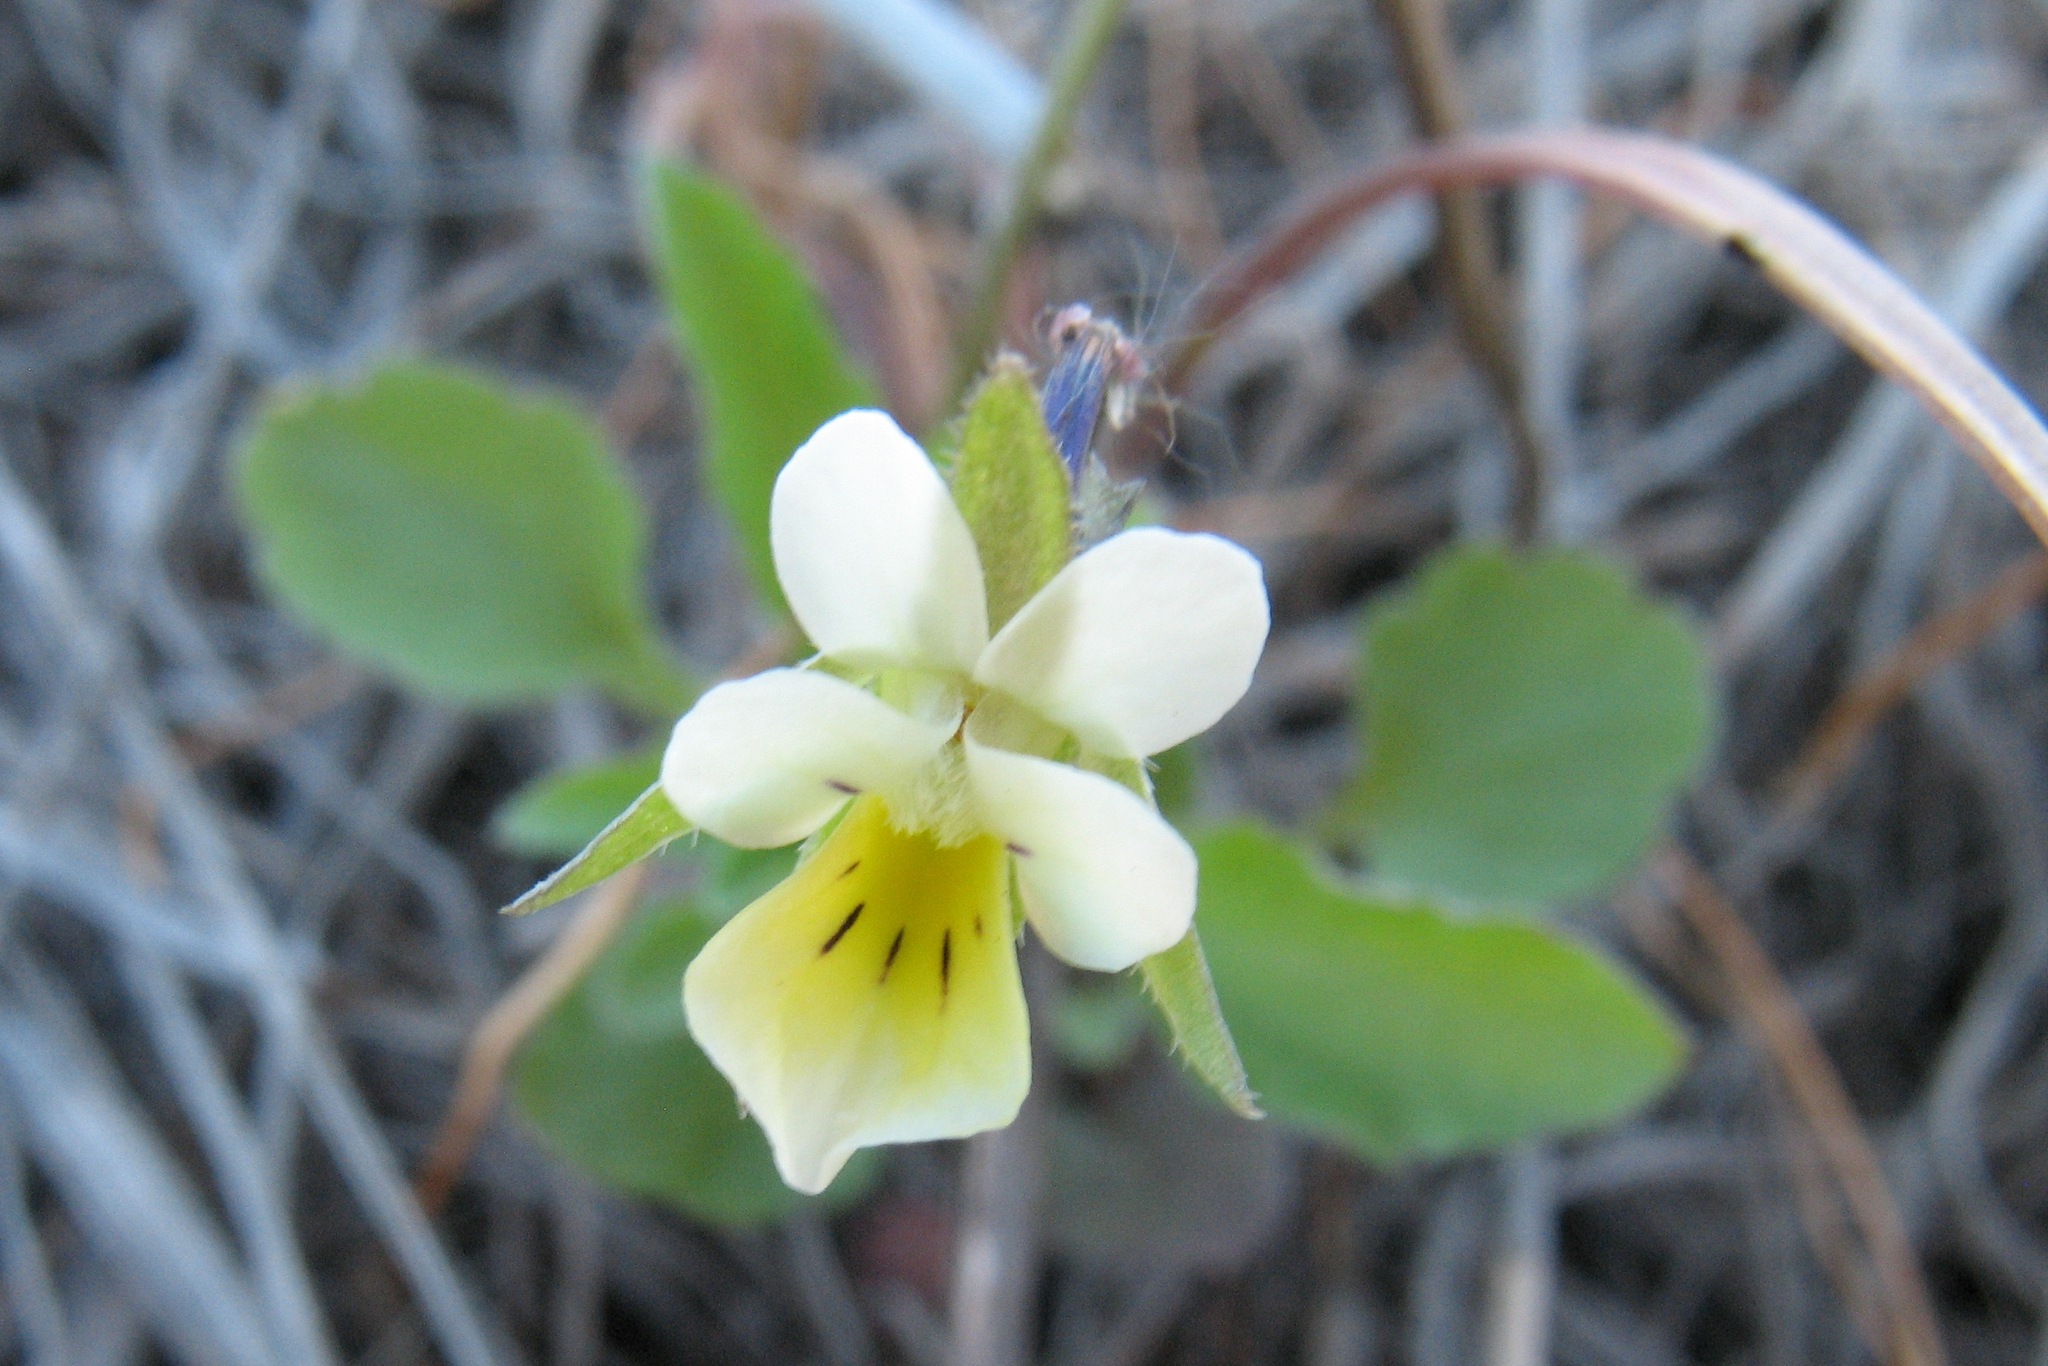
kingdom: Plantae
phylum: Tracheophyta
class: Magnoliopsida
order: Malpighiales
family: Violaceae
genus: Viola
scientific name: Viola arvensis
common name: Field pansy
